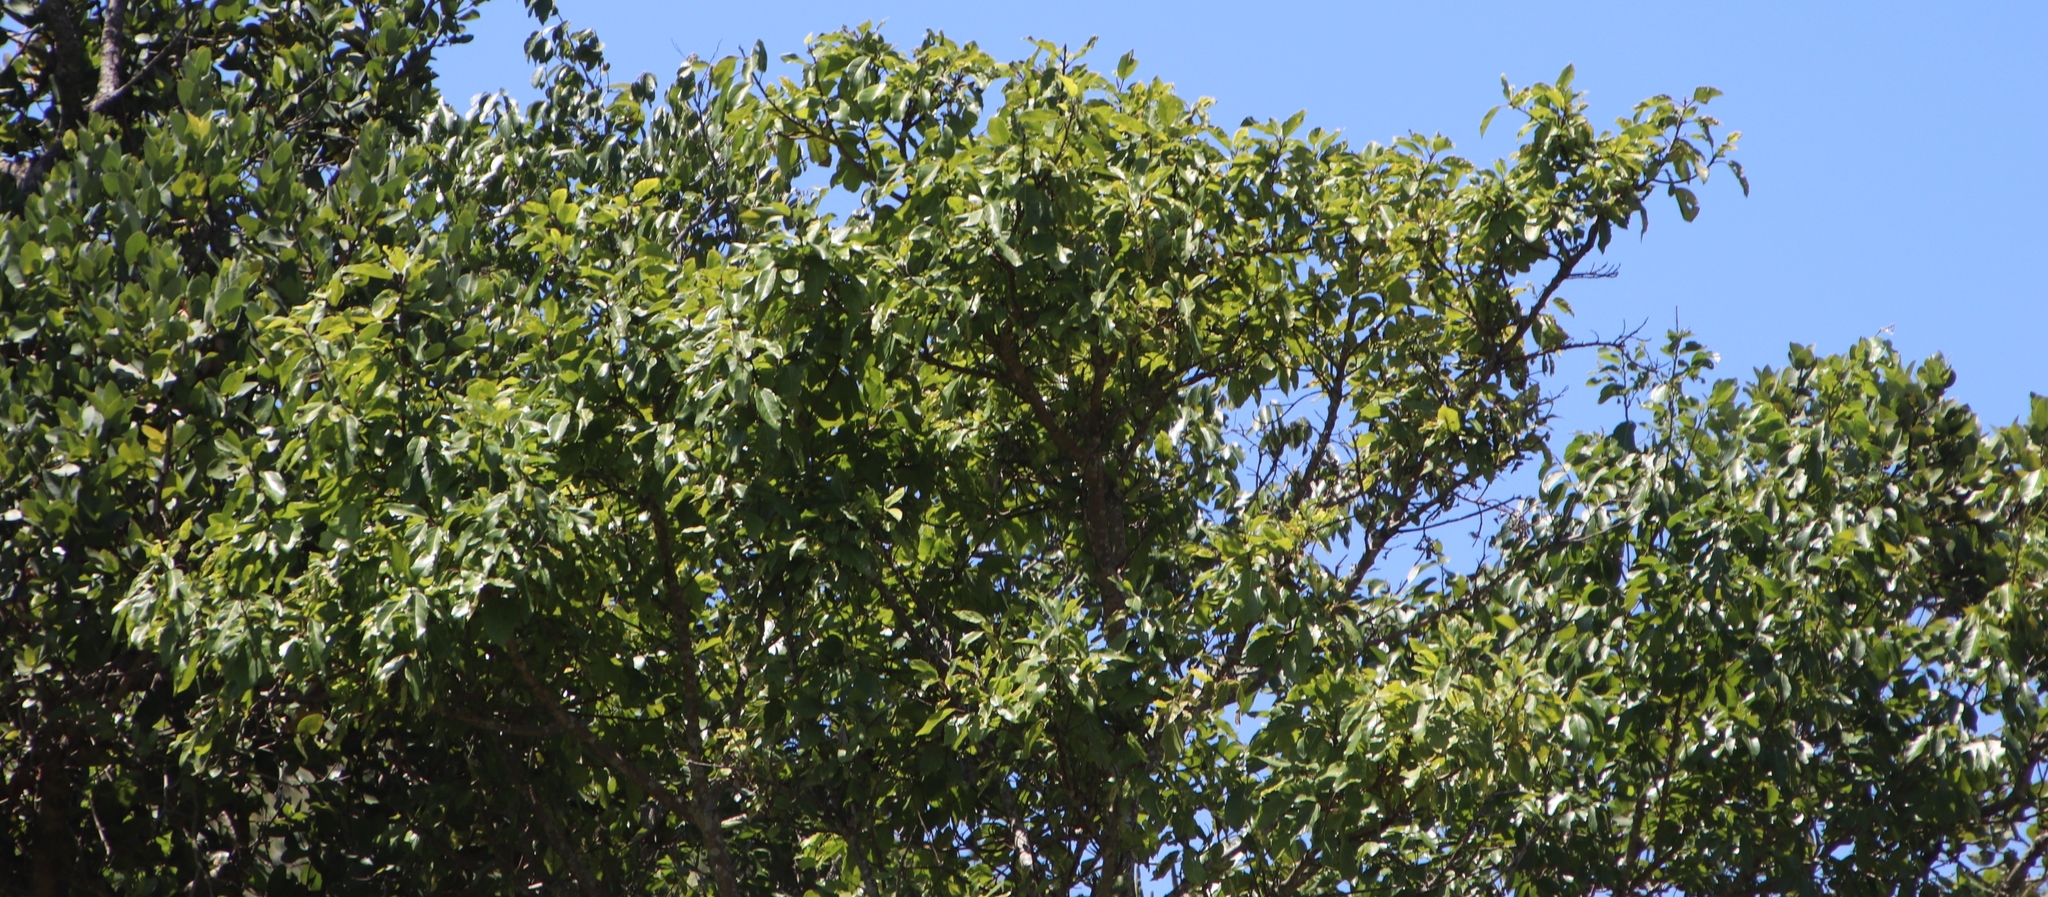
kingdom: Plantae
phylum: Tracheophyta
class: Magnoliopsida
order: Rosales
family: Moraceae
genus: Ficus
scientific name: Ficus sur
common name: Cape fig
